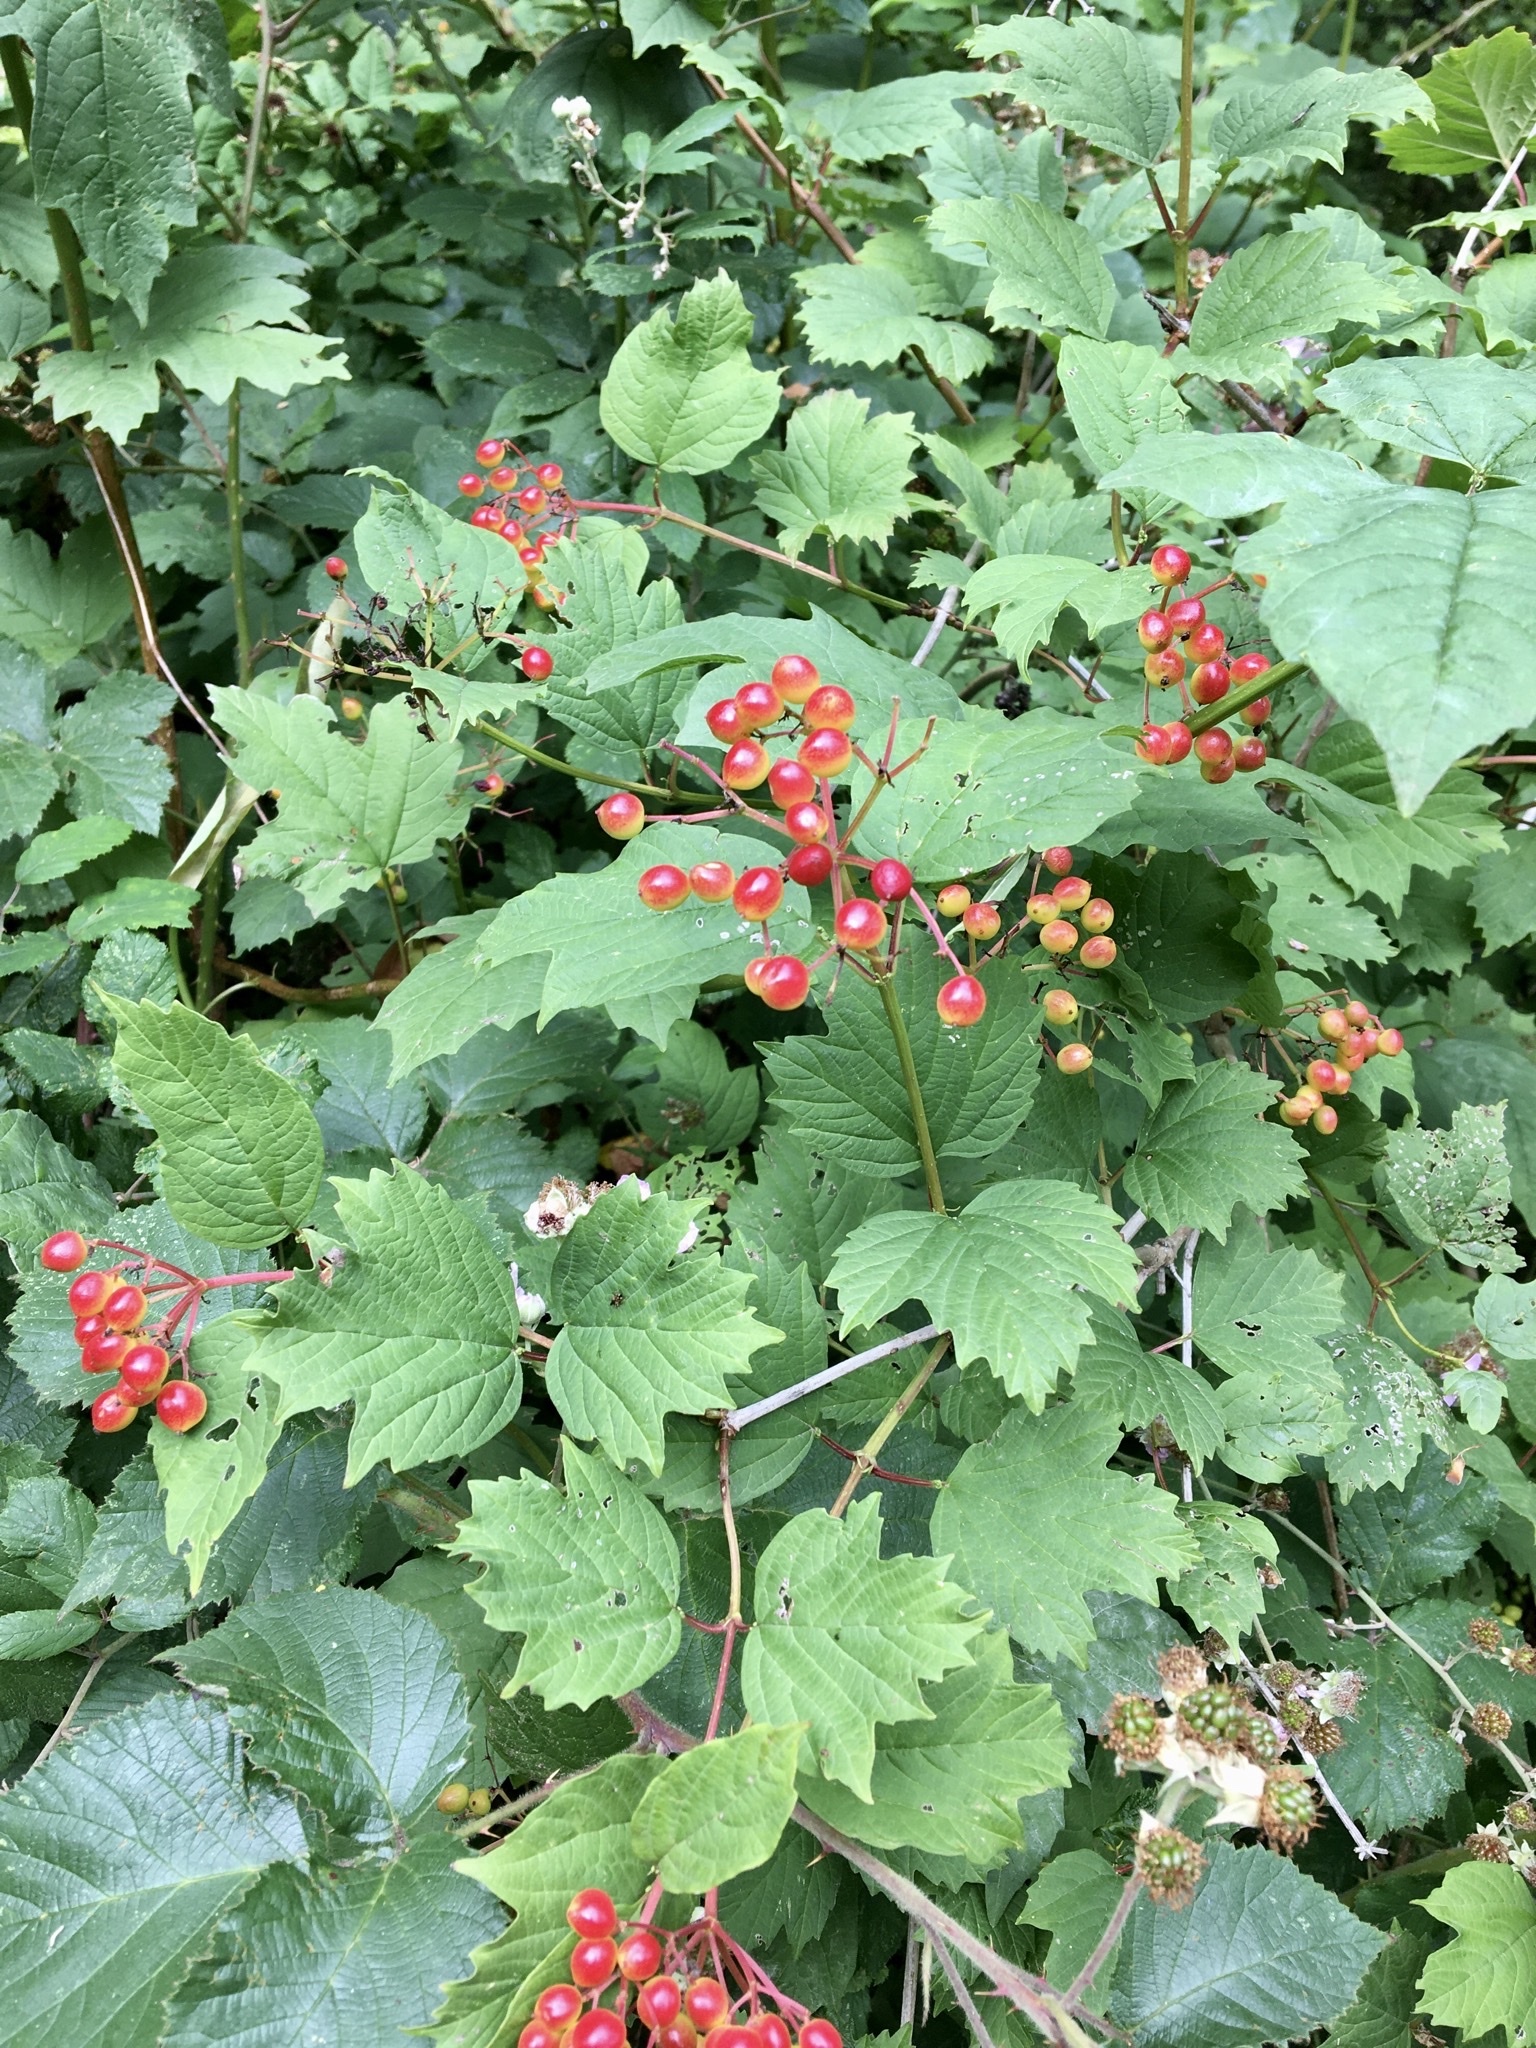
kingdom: Plantae
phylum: Tracheophyta
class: Magnoliopsida
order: Dipsacales
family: Viburnaceae
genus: Viburnum
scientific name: Viburnum opulus
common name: Guelder-rose
